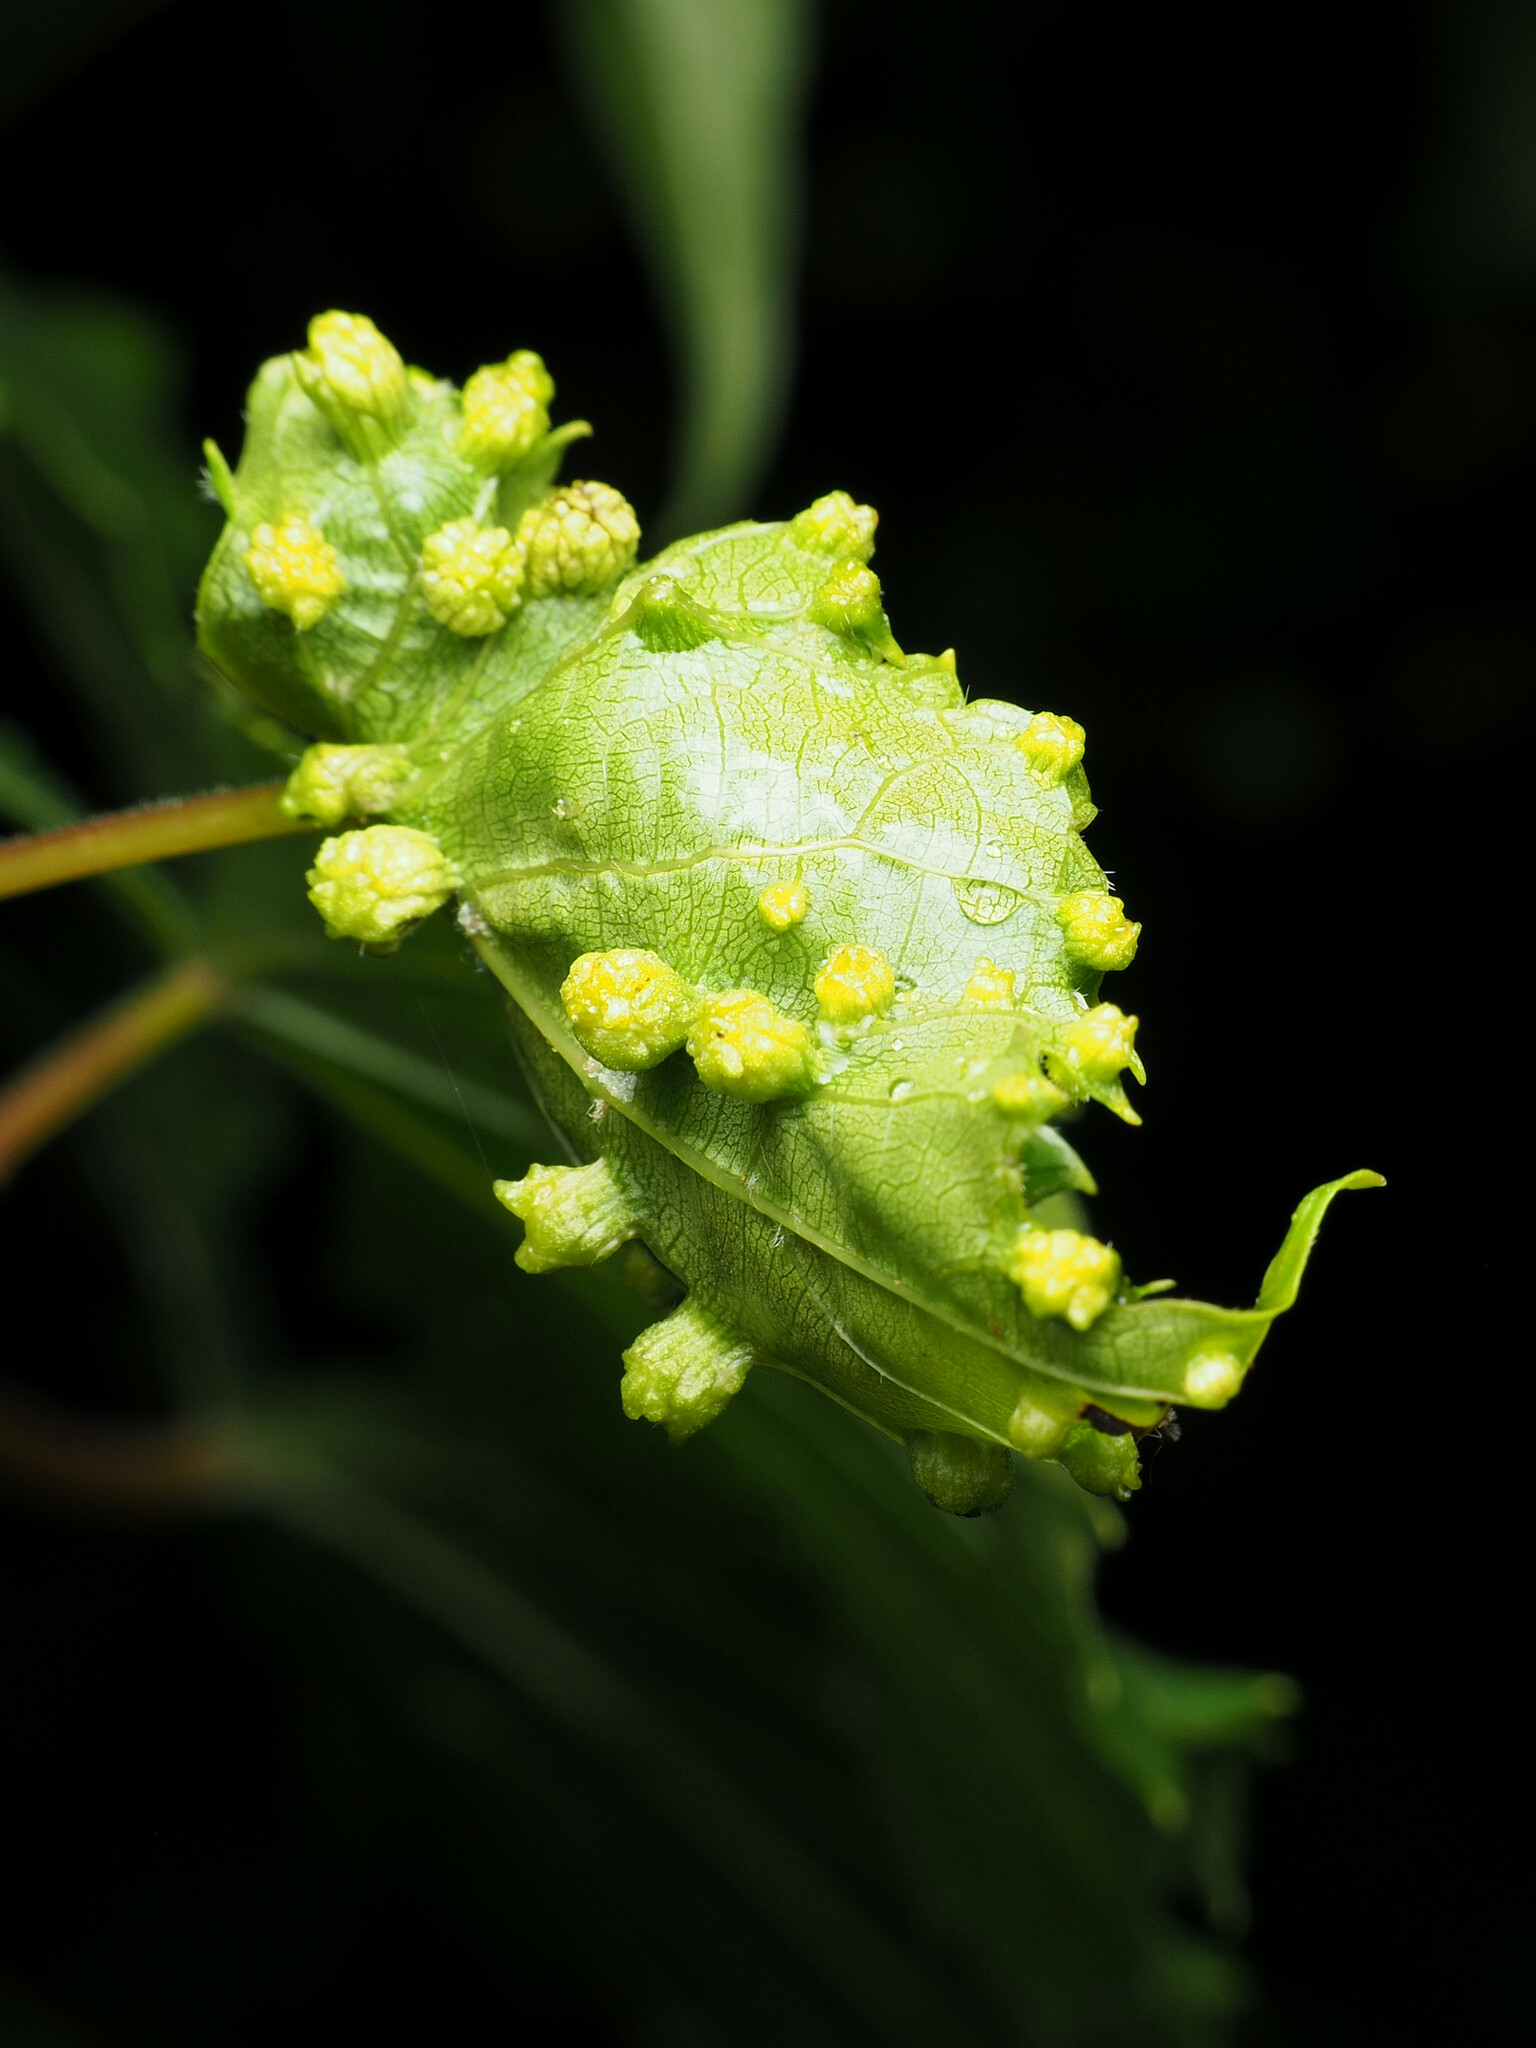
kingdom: Animalia
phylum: Arthropoda
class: Insecta
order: Hemiptera
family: Phylloxeridae
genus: Daktulosphaira
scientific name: Daktulosphaira vitifoliae
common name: Grape phylloxera
